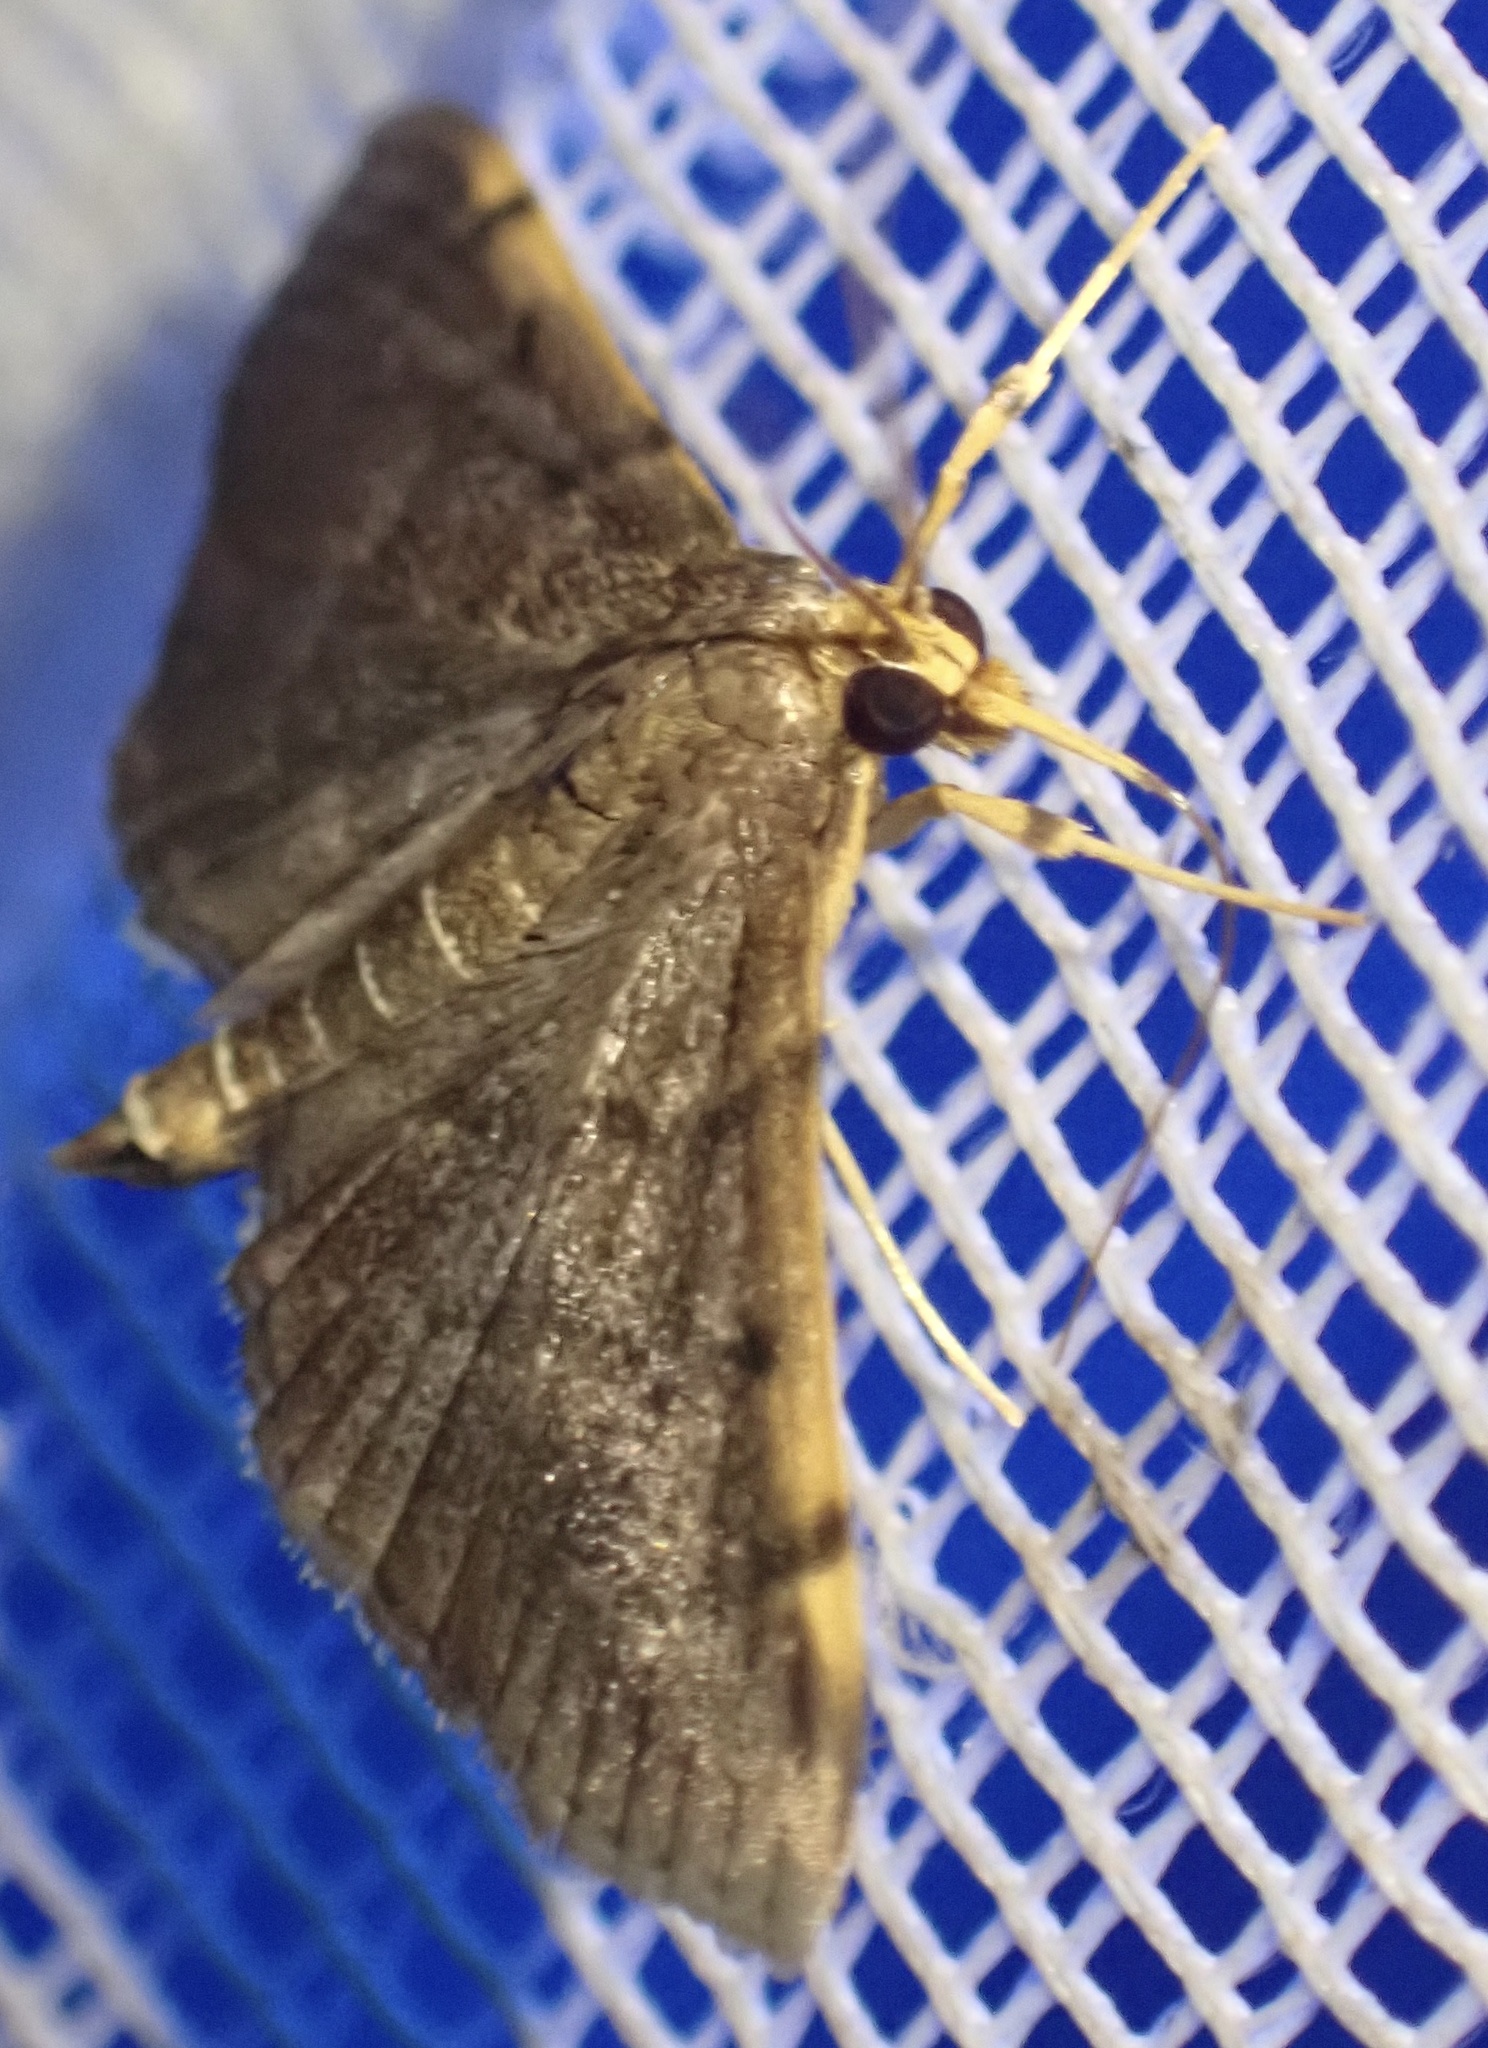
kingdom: Animalia
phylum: Arthropoda
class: Insecta
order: Lepidoptera
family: Crambidae
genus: Omiodes
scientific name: Omiodes indicata
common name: Bean-leaf webworm moth
